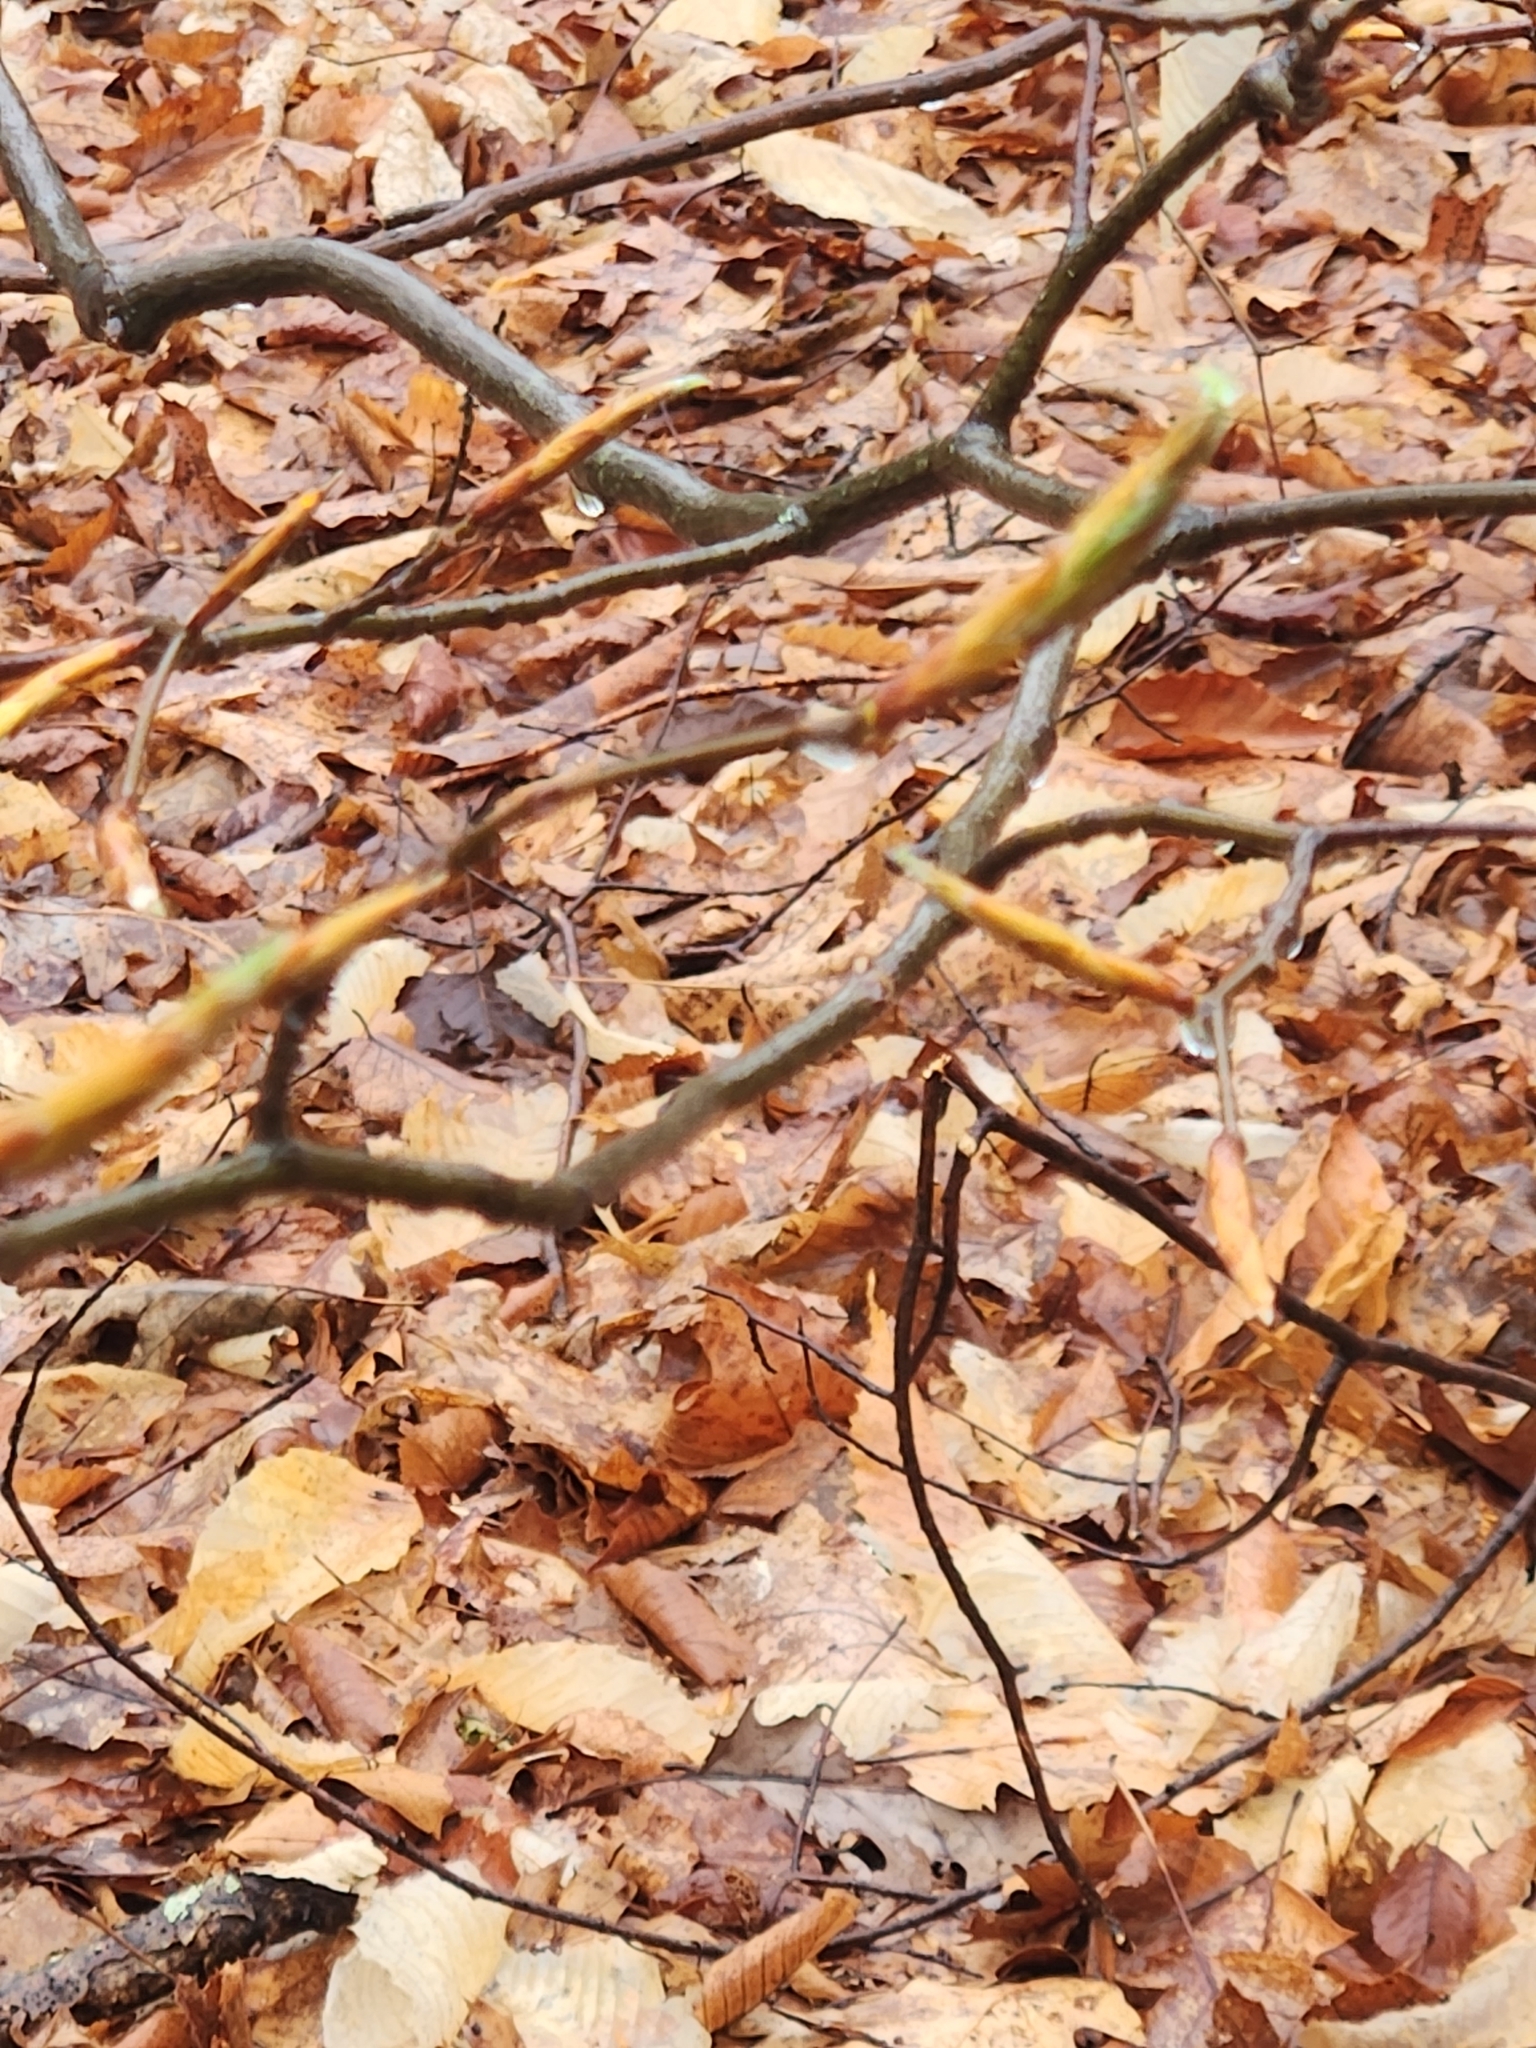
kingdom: Plantae
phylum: Tracheophyta
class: Magnoliopsida
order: Fagales
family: Fagaceae
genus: Fagus
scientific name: Fagus grandifolia
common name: American beech
